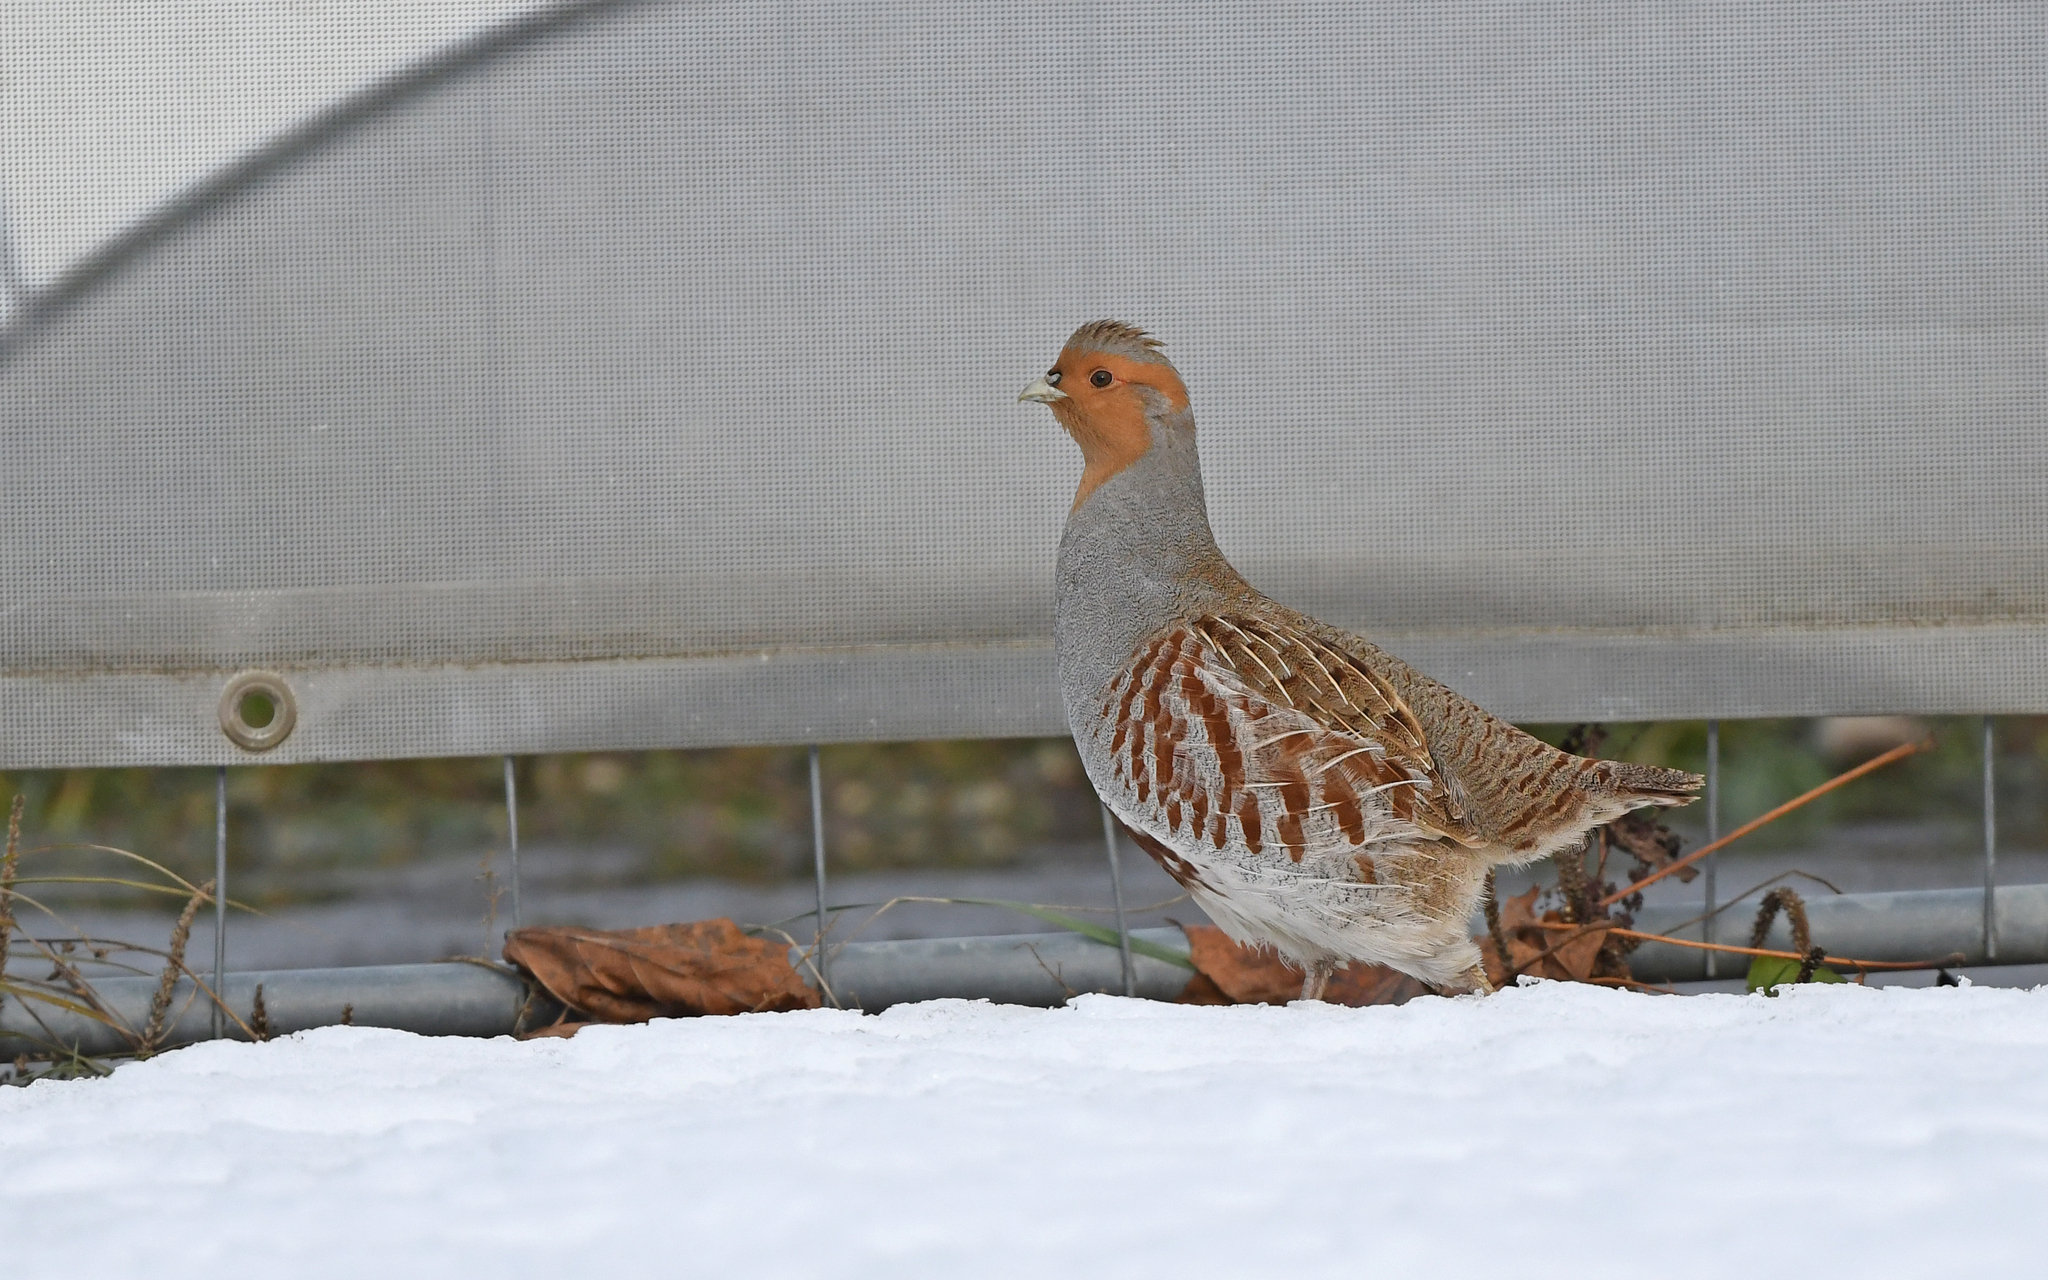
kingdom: Animalia
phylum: Chordata
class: Aves
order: Galliformes
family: Phasianidae
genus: Perdix
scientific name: Perdix perdix
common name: Grey partridge
